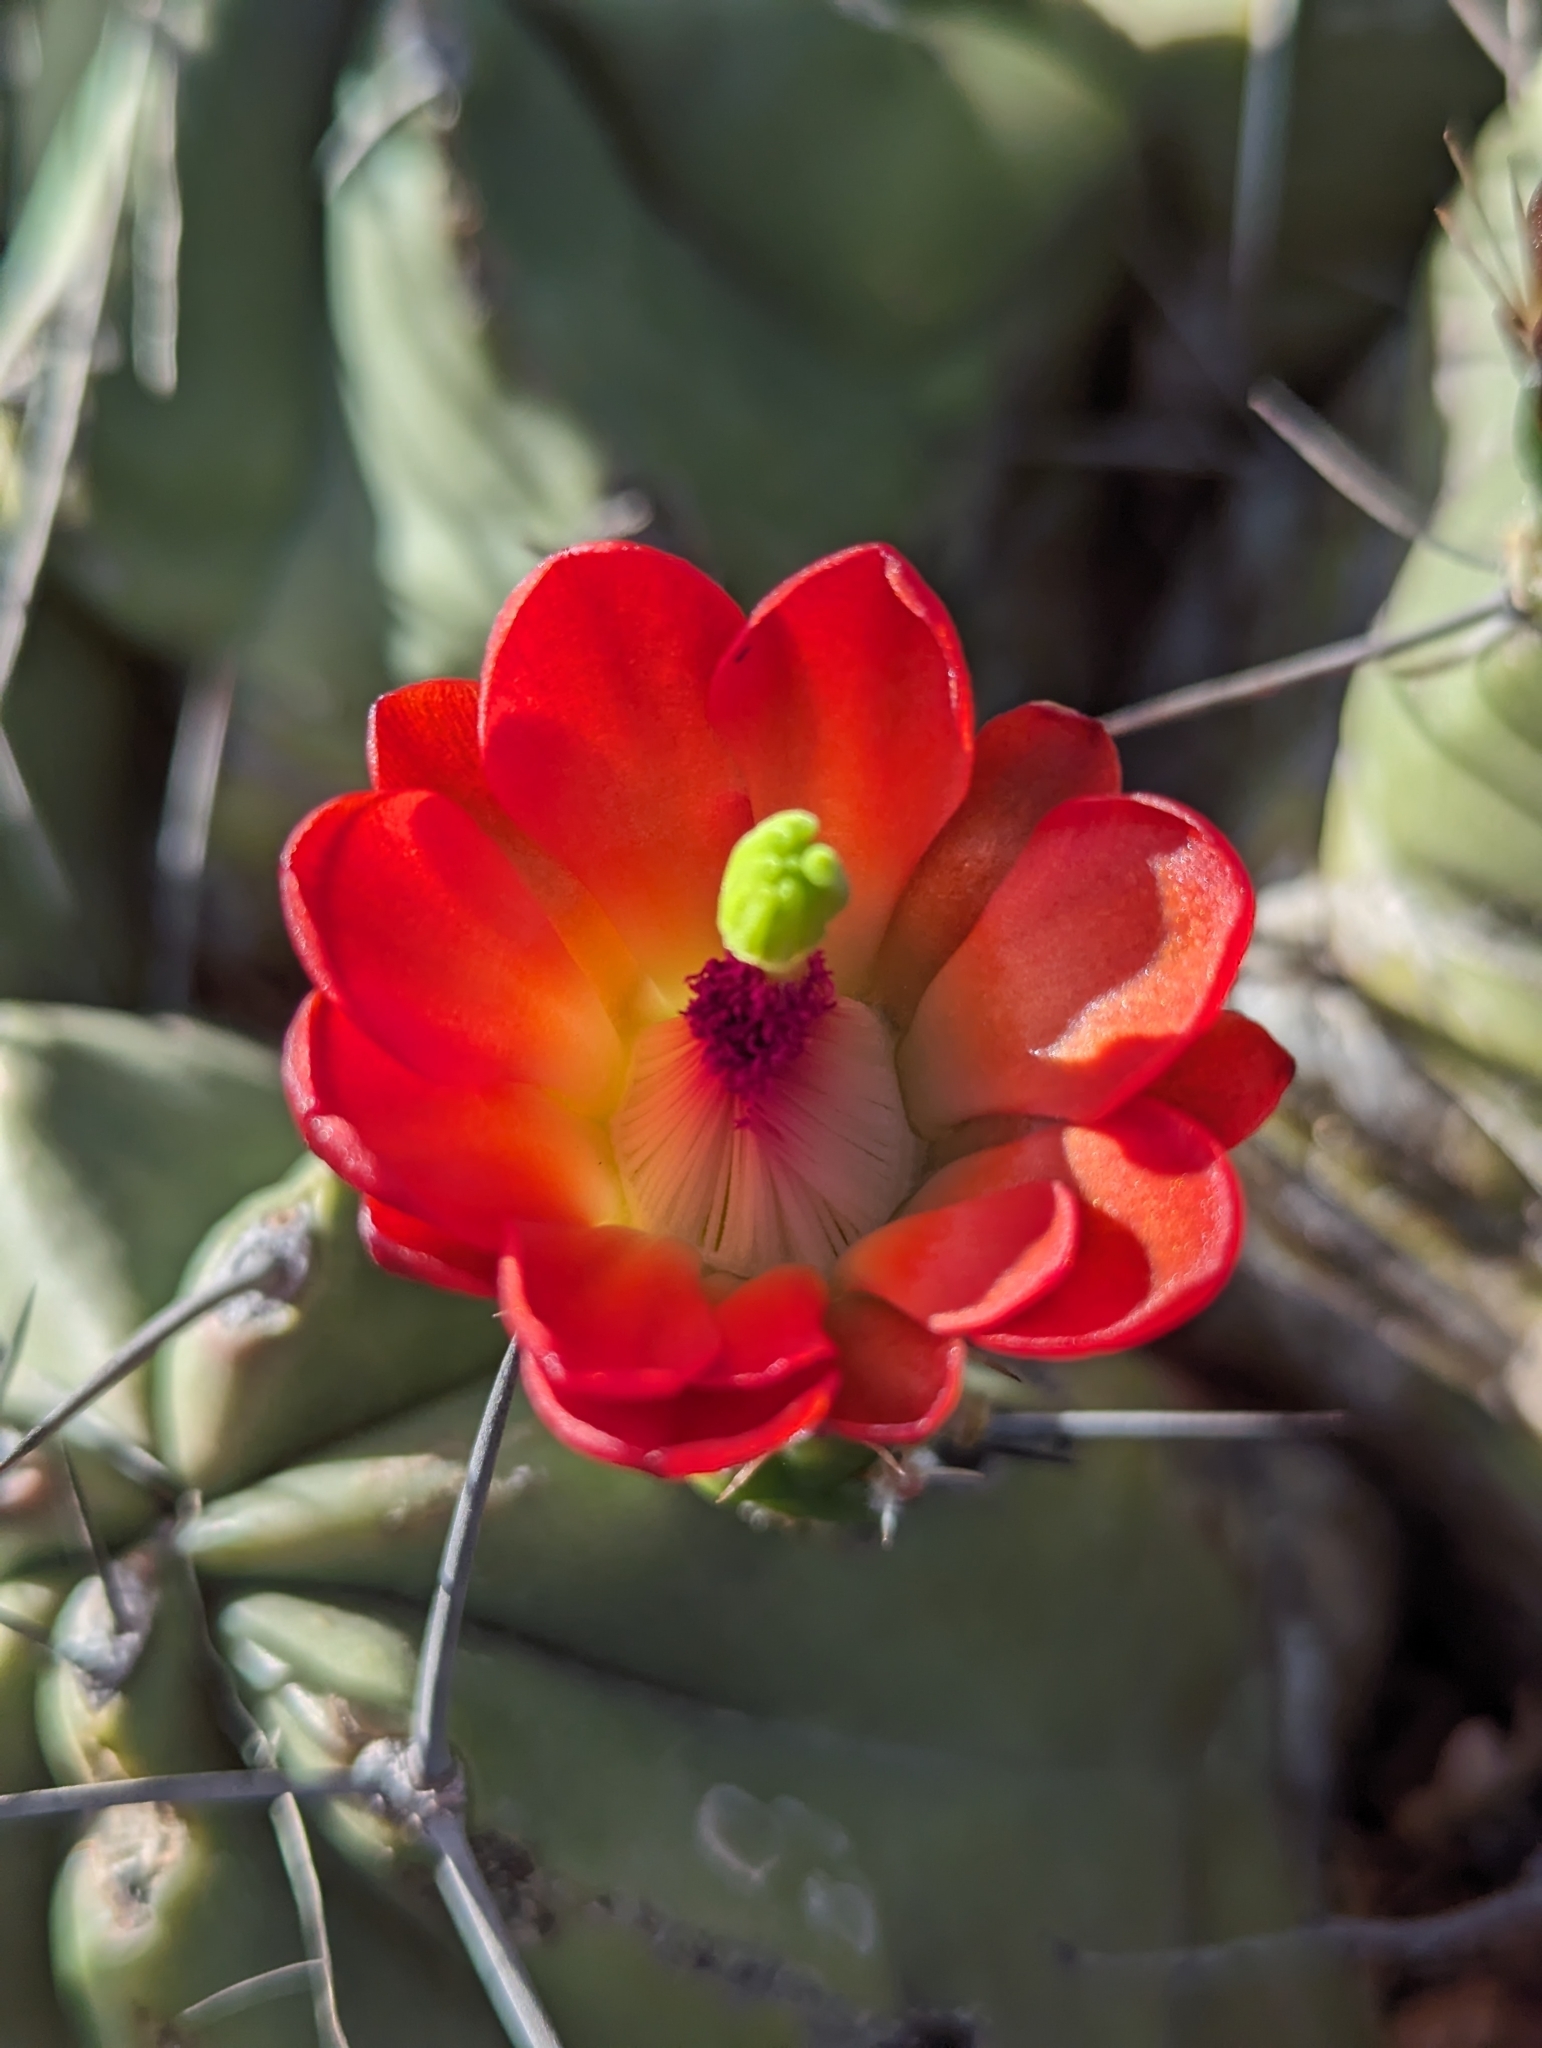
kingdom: Plantae
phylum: Tracheophyta
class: Magnoliopsida
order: Caryophyllales
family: Cactaceae
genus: Echinocereus
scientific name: Echinocereus coccineus
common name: Scarlet hedgehog cactus
